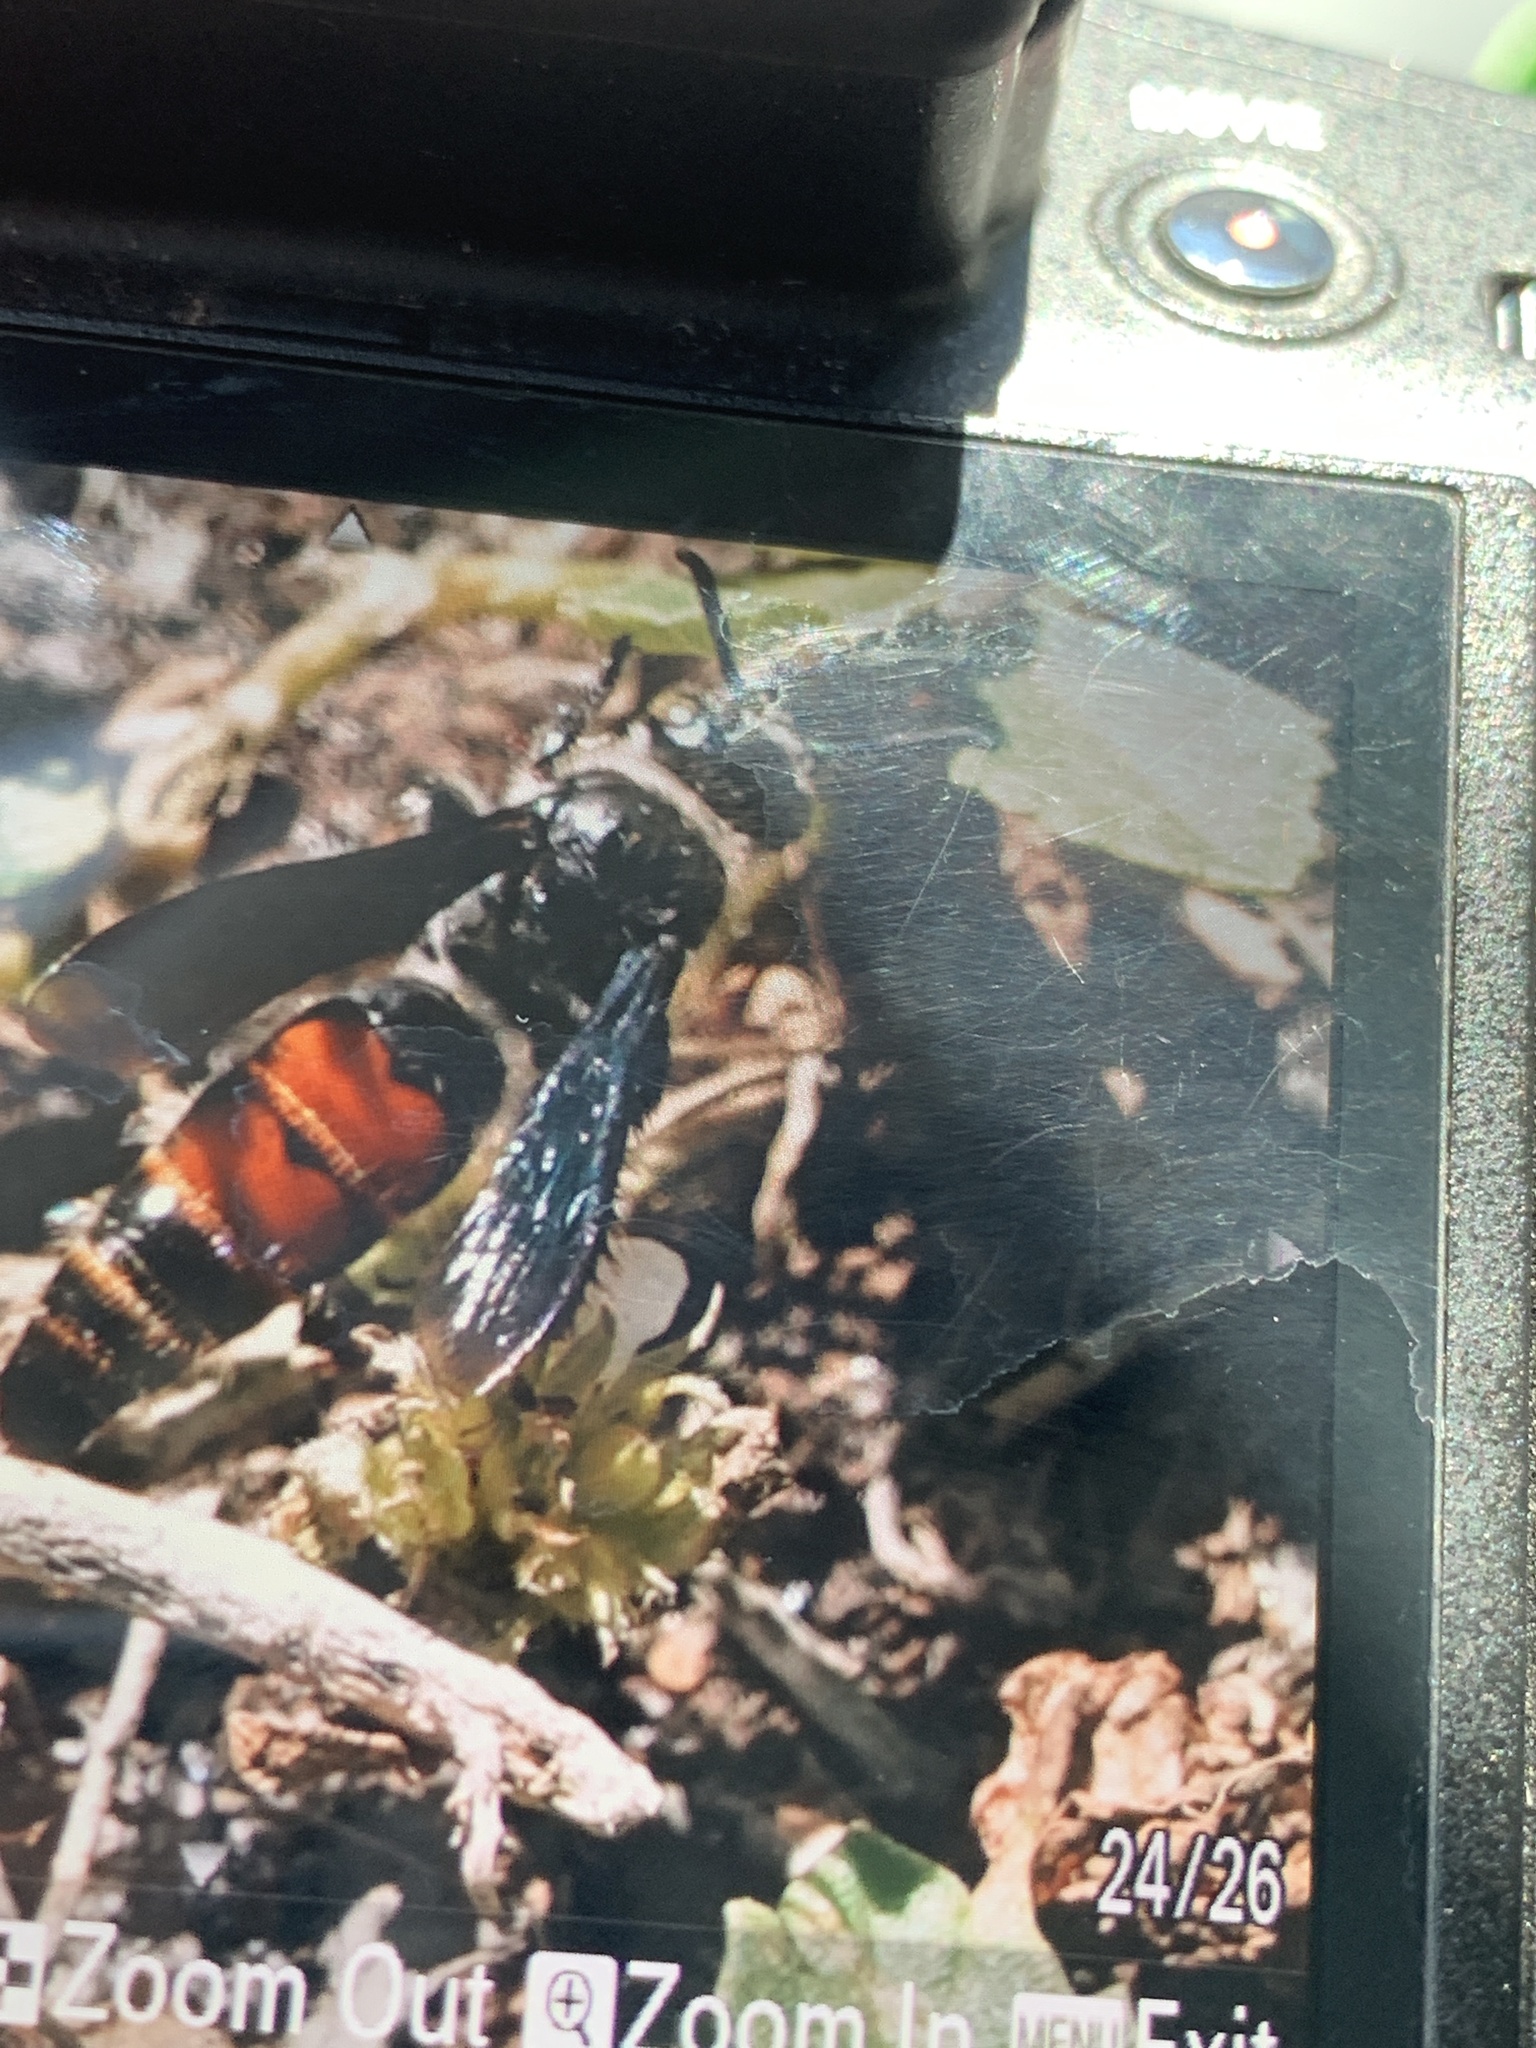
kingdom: Animalia
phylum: Arthropoda
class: Insecta
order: Hymenoptera
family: Scoliidae
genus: Dielis
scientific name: Dielis dorsata
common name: Scoliid wasp
